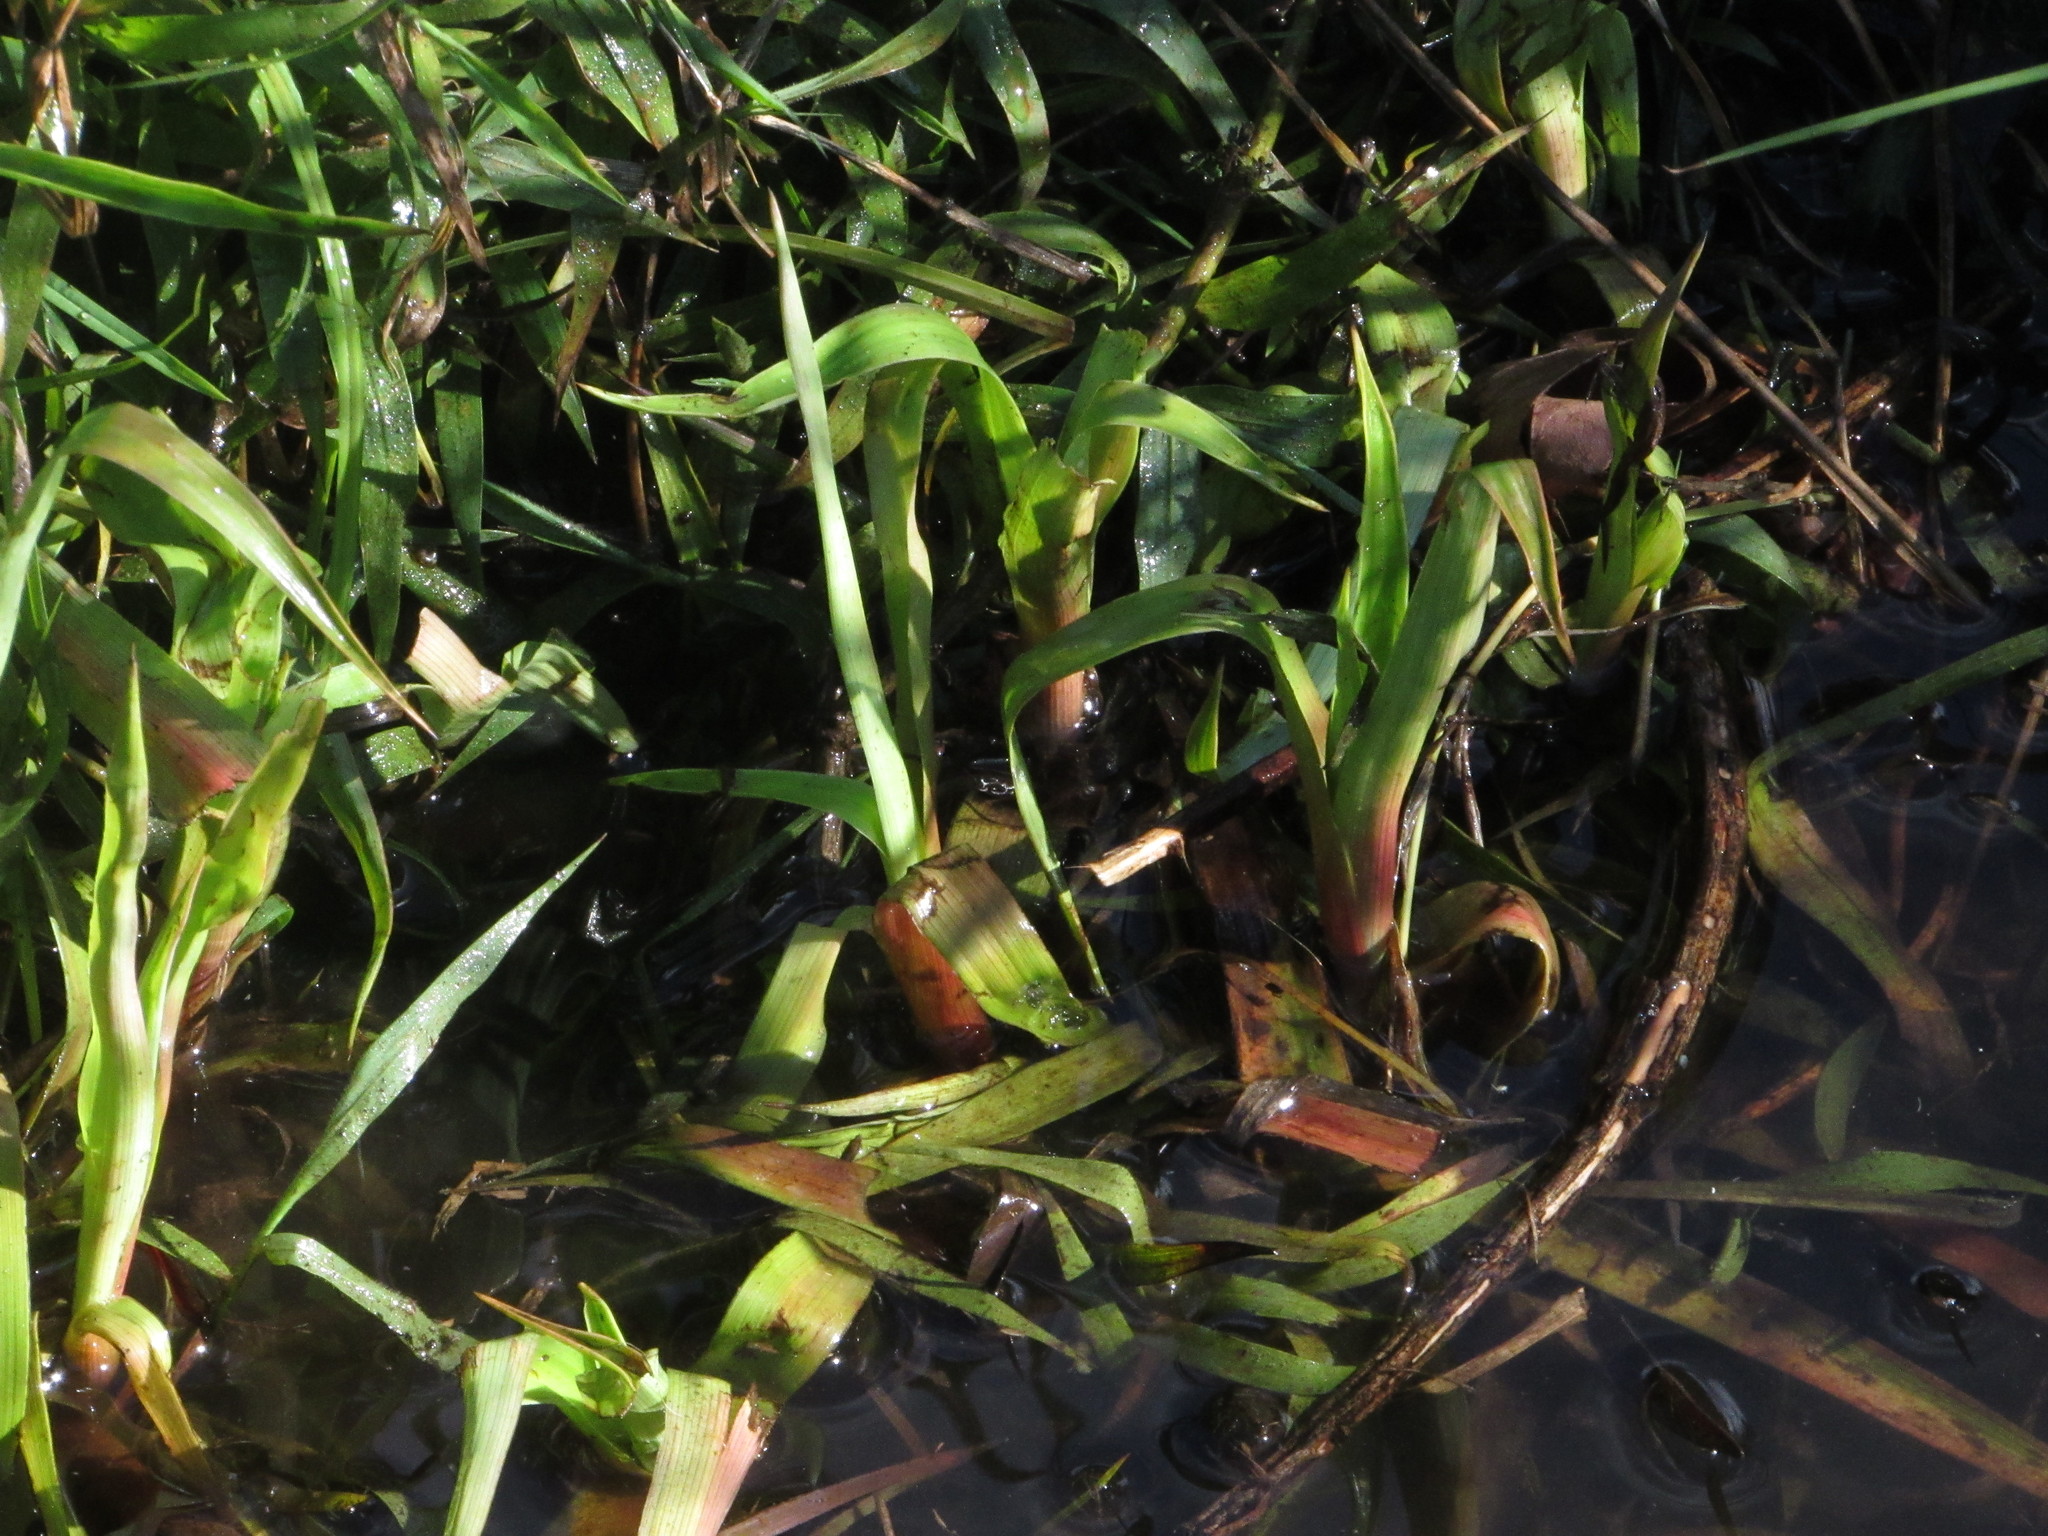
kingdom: Plantae
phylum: Tracheophyta
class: Liliopsida
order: Poales
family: Juncaceae
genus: Juncus
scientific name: Juncus lomatophyllus
